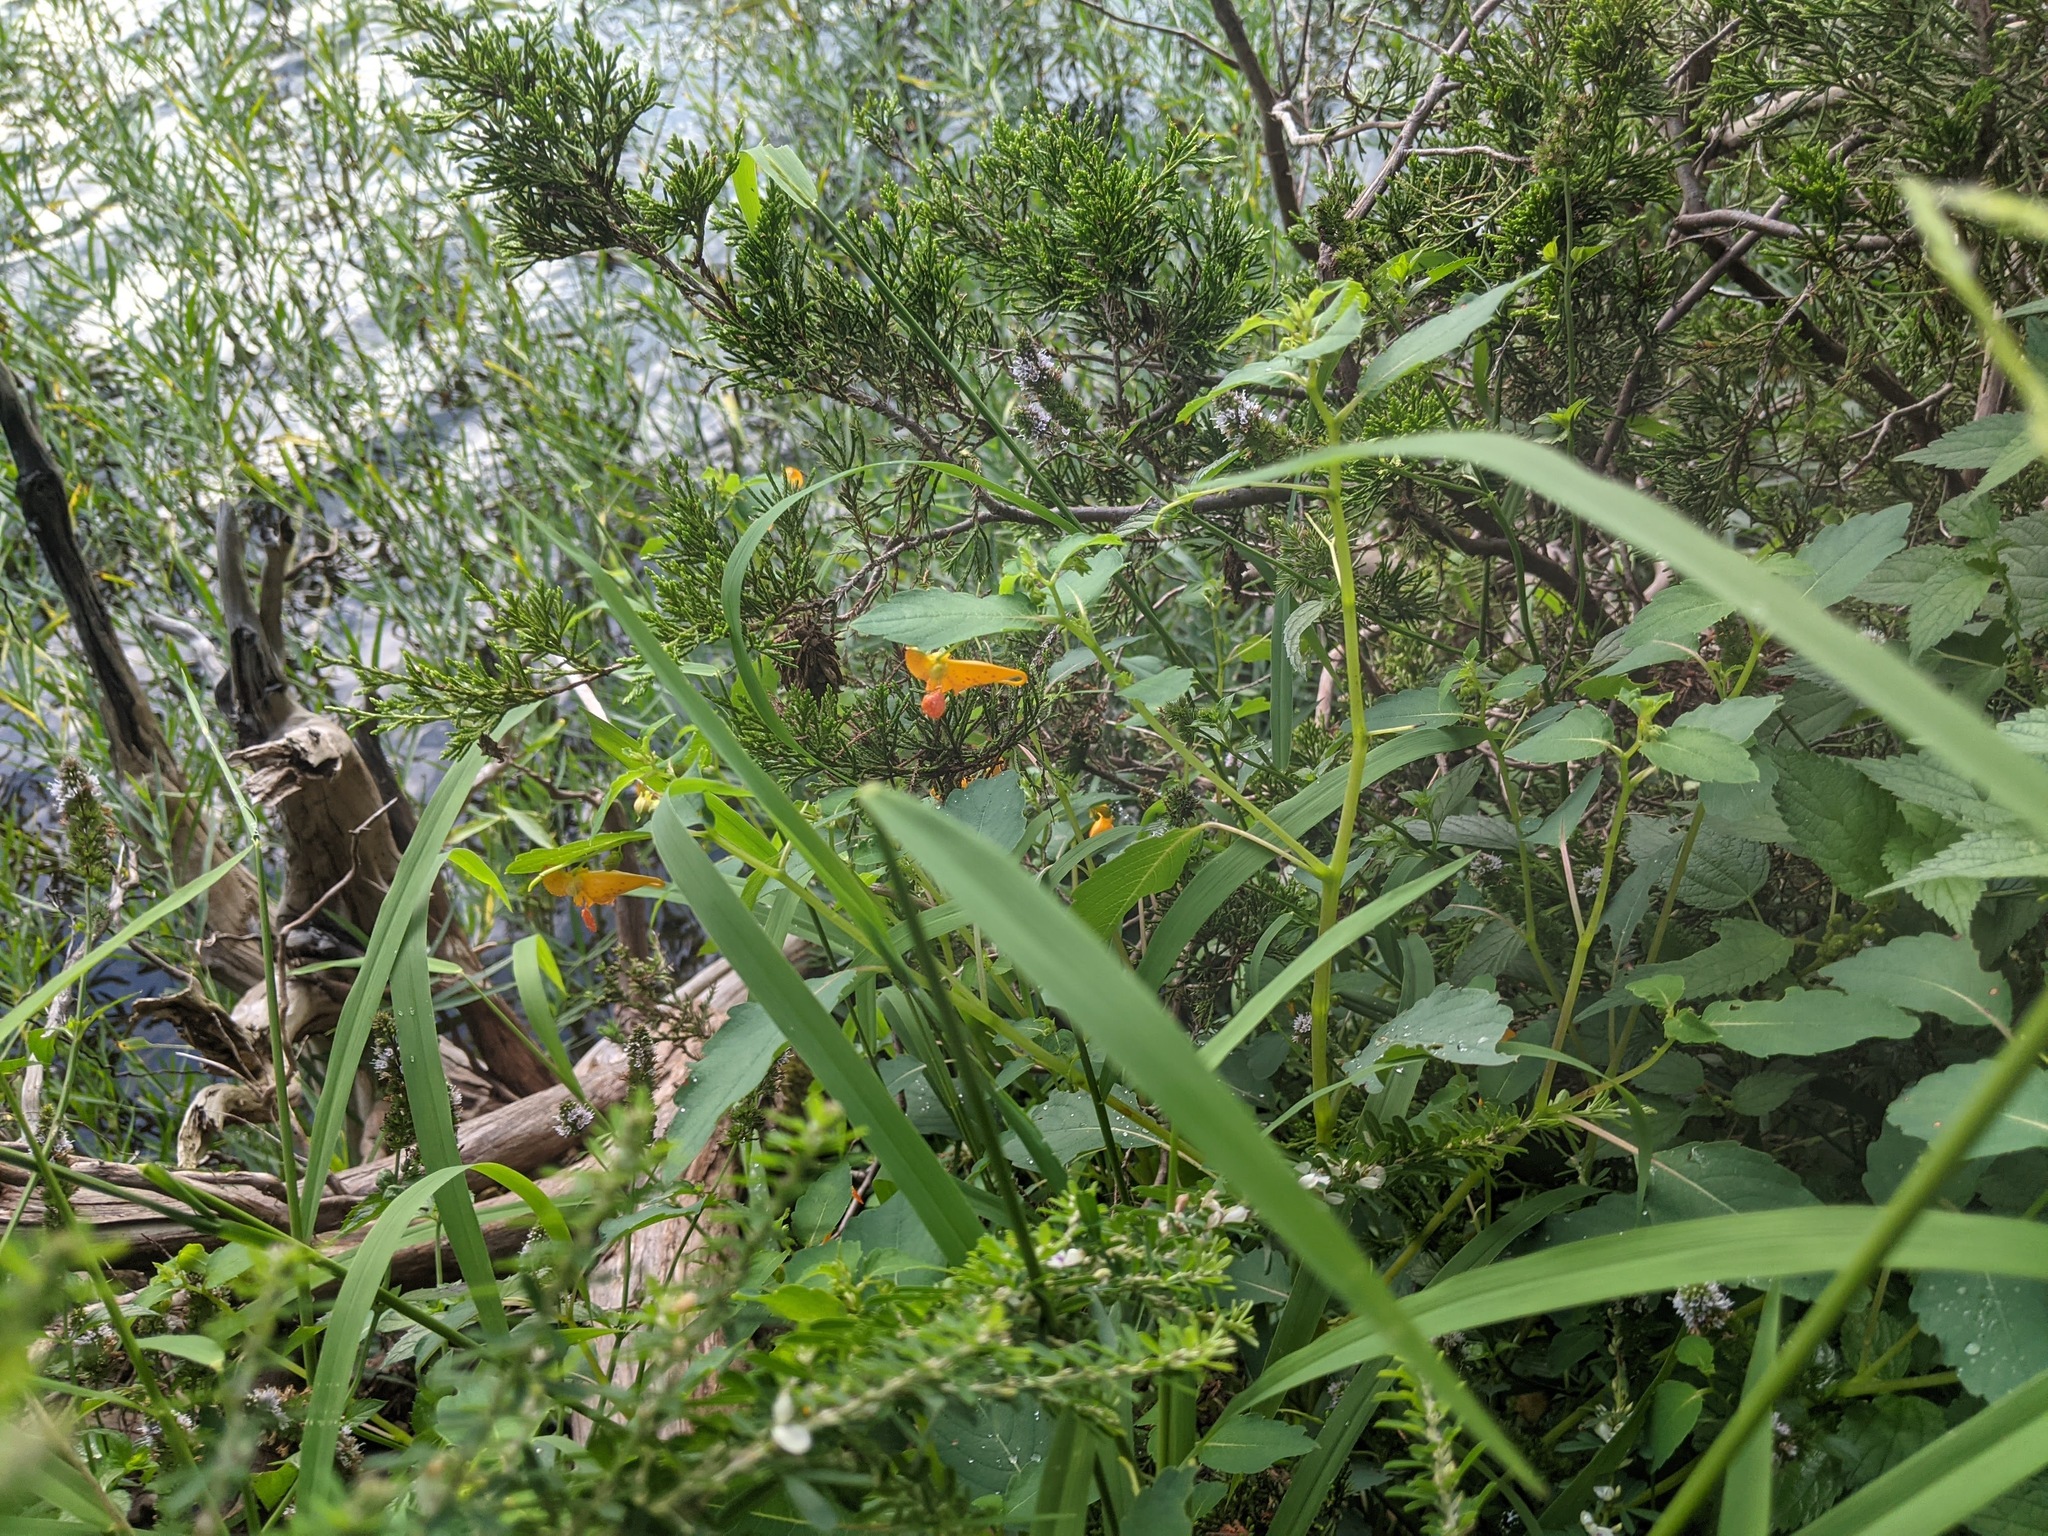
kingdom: Plantae
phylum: Tracheophyta
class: Magnoliopsida
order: Ericales
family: Balsaminaceae
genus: Impatiens
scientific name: Impatiens capensis
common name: Orange balsam
